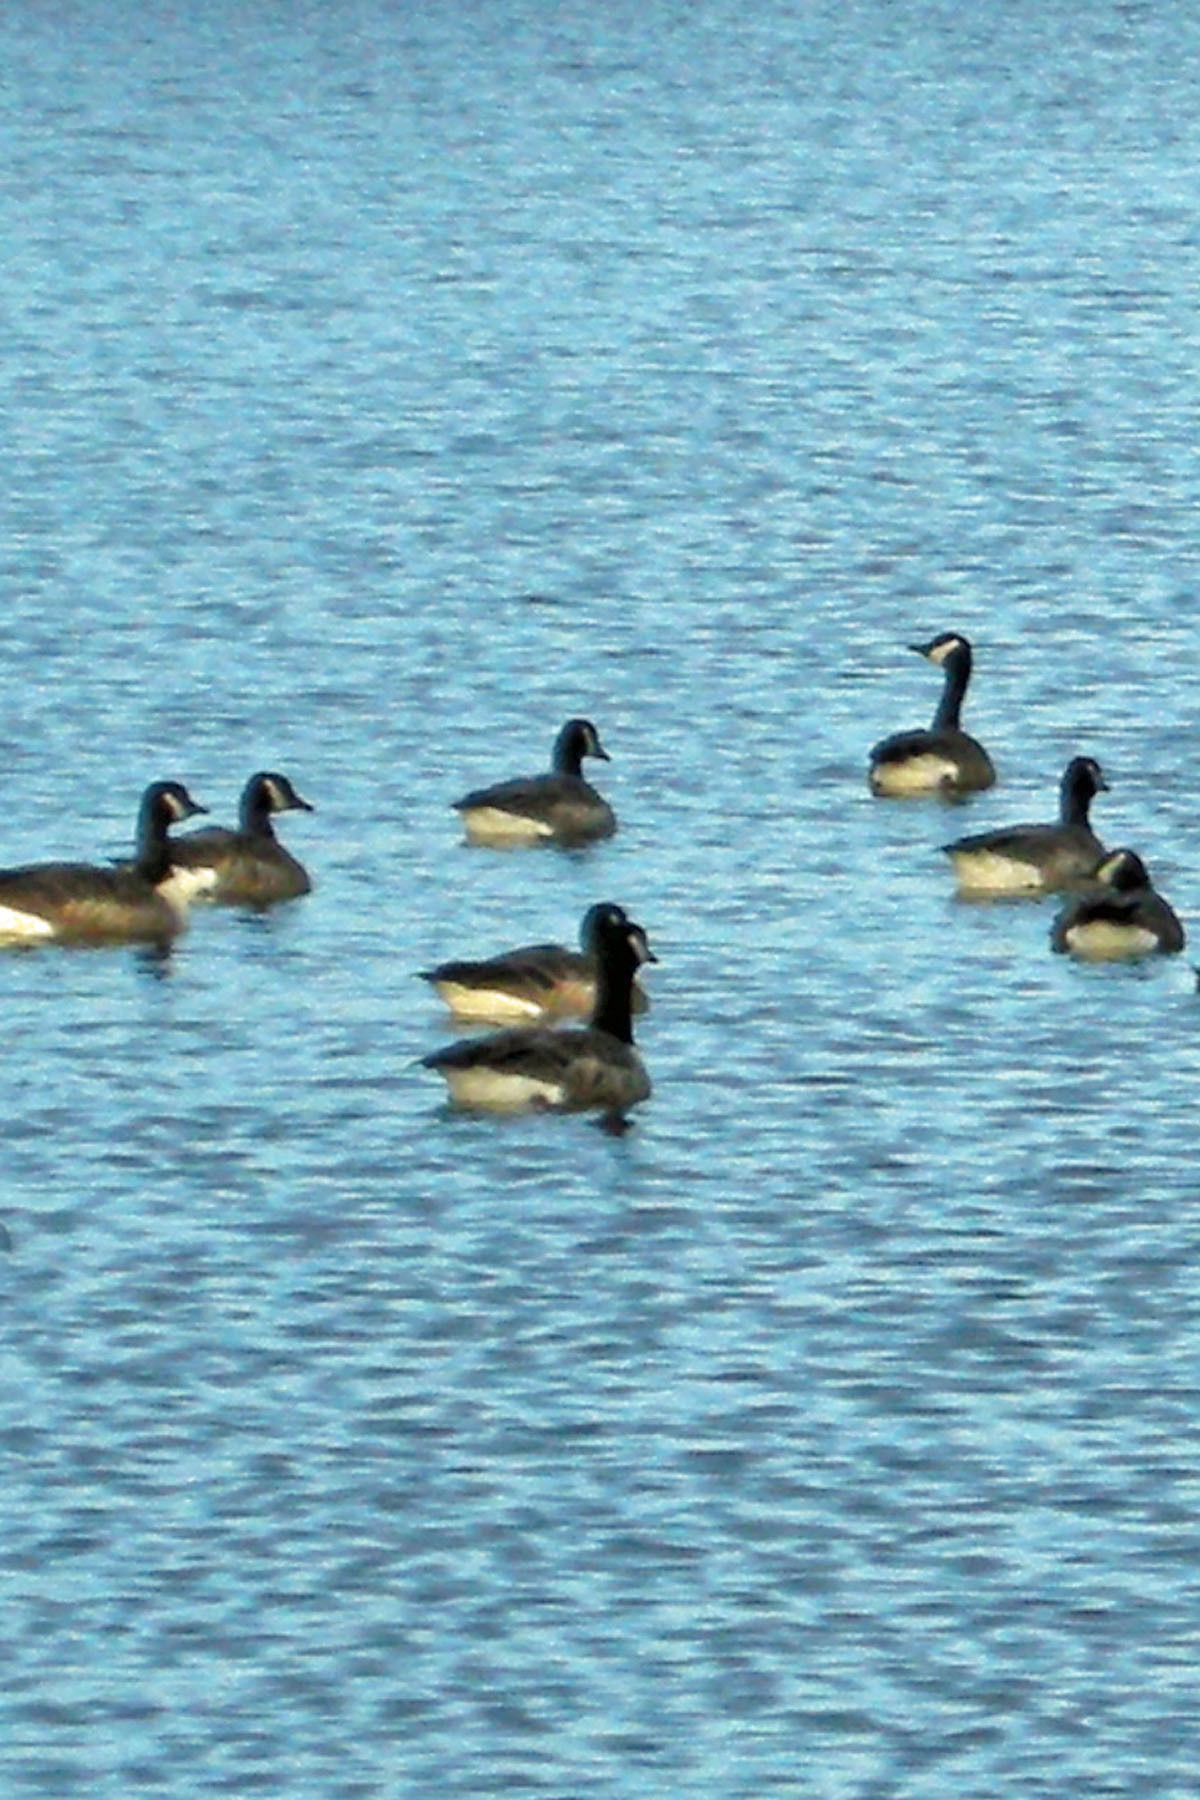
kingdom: Animalia
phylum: Chordata
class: Aves
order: Anseriformes
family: Anatidae
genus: Branta
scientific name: Branta canadensis
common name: Canada goose
